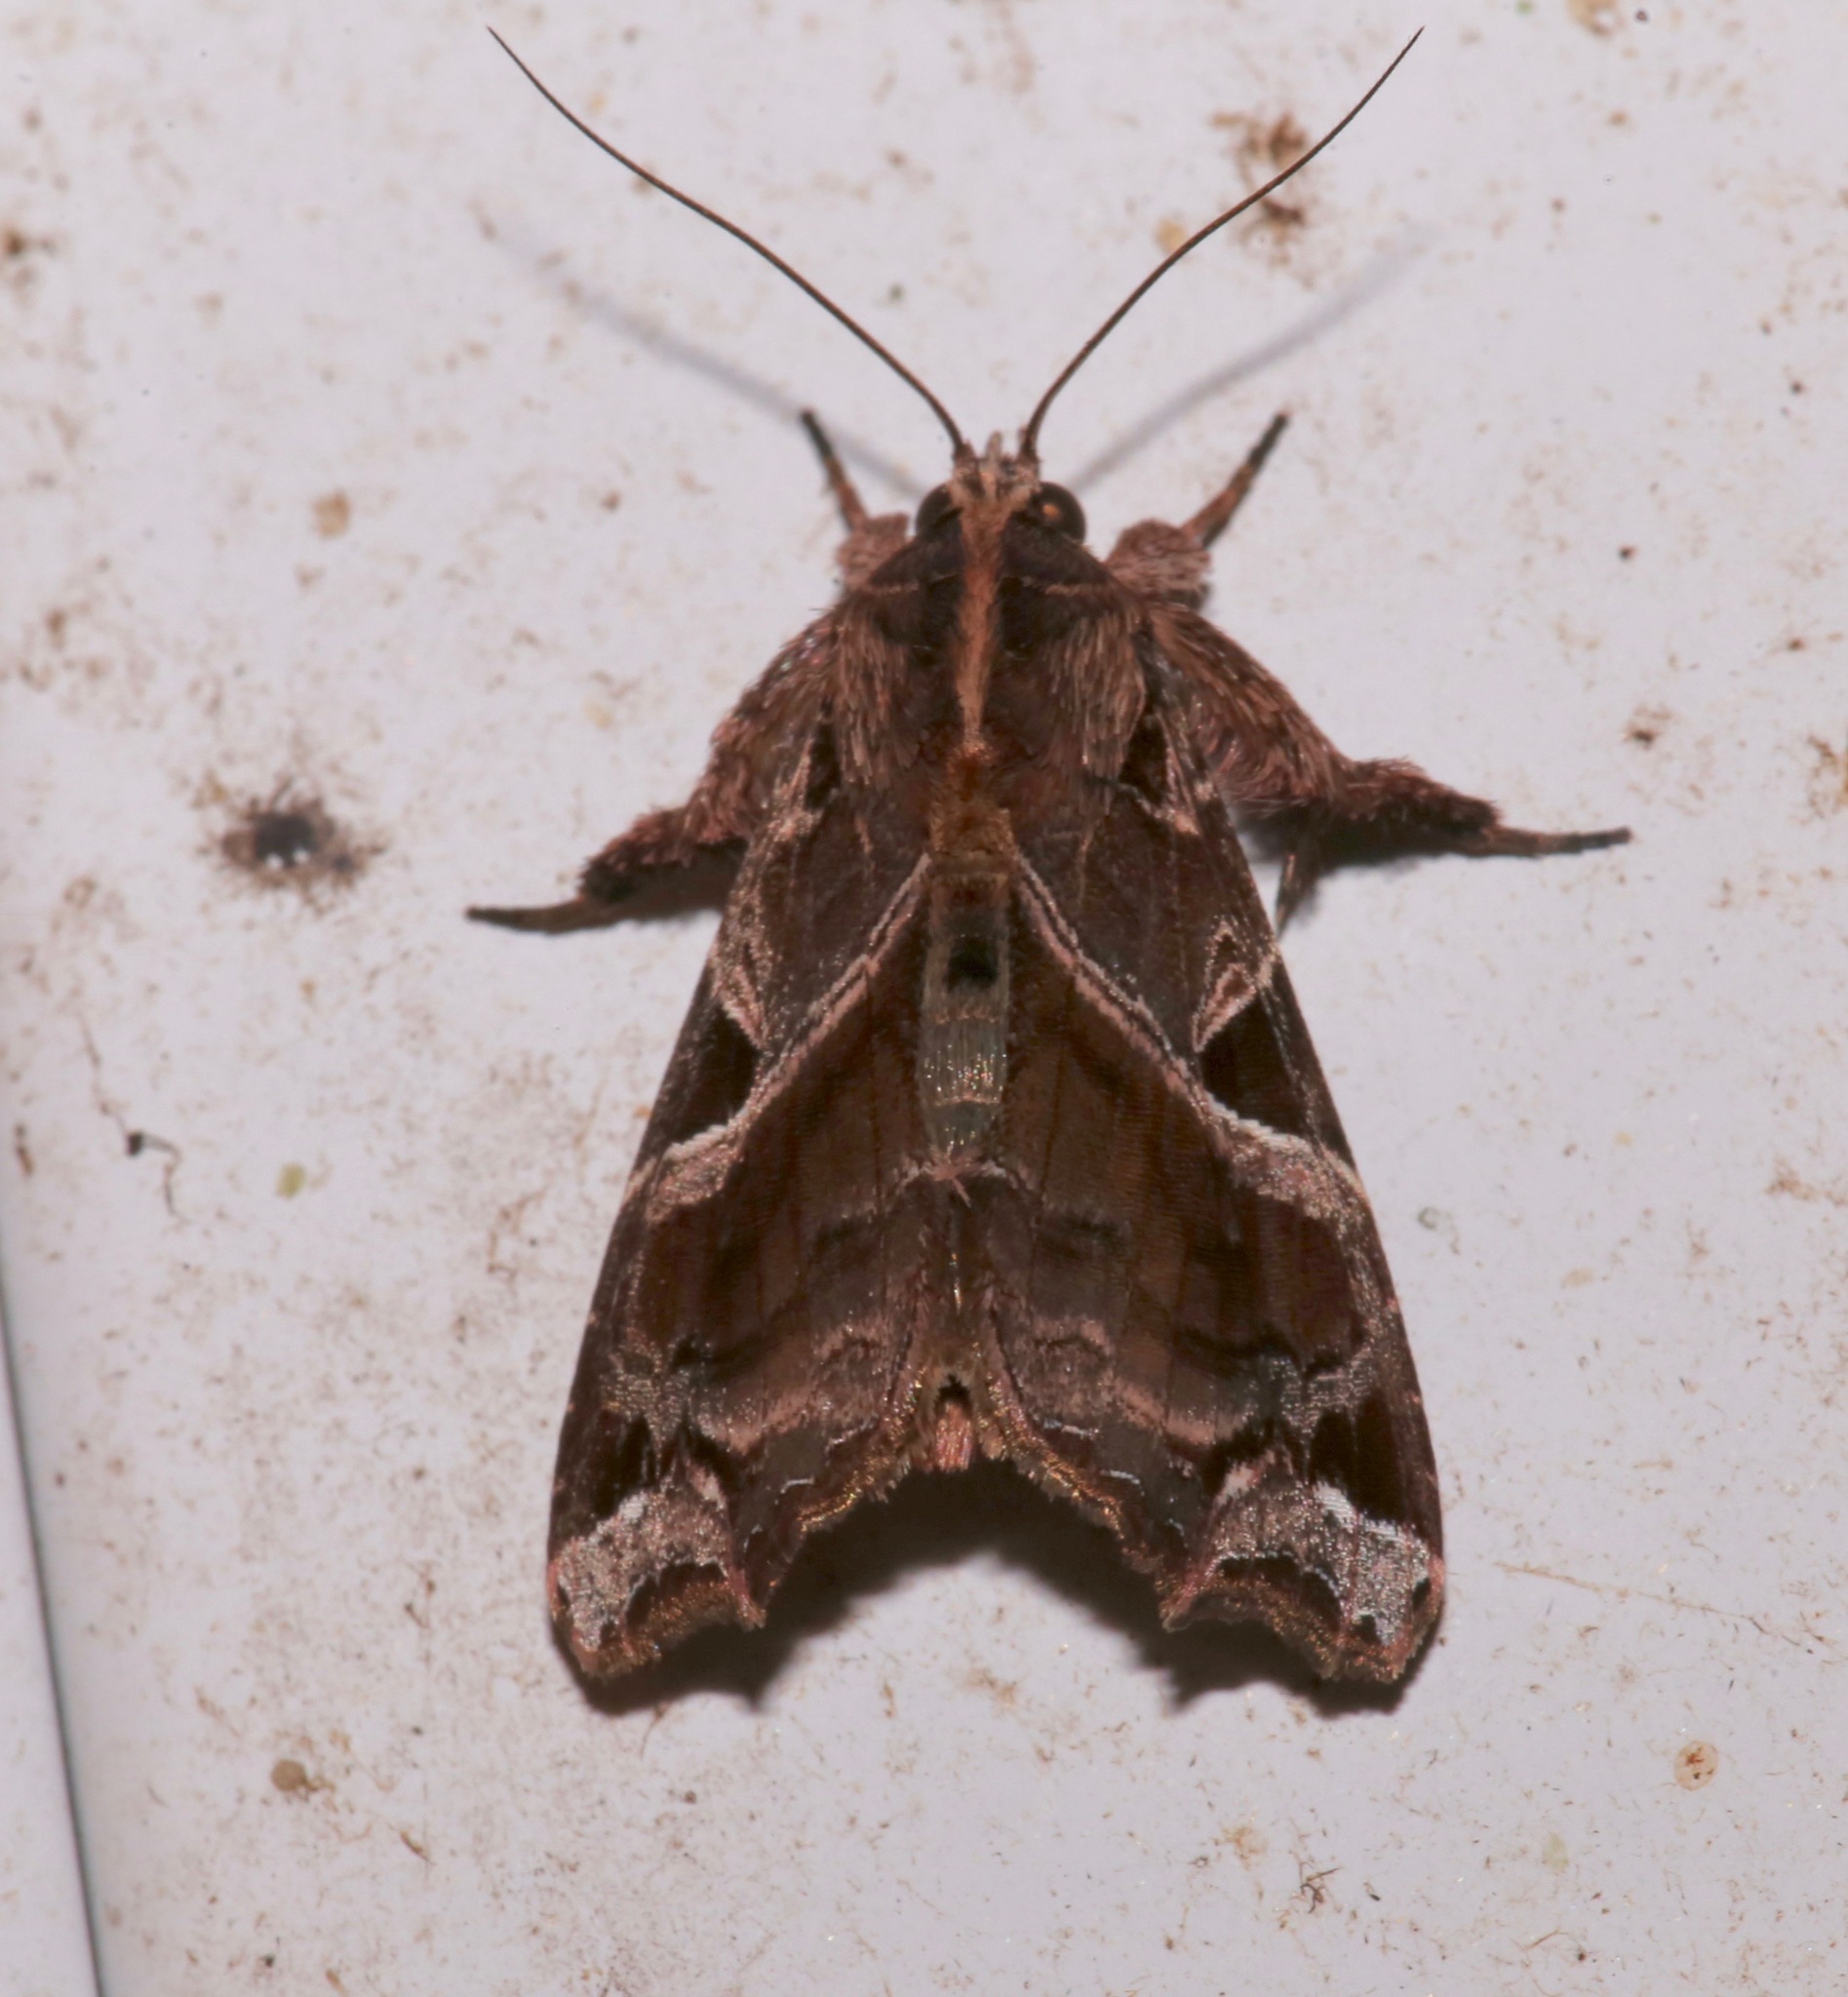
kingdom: Animalia
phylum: Arthropoda
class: Insecta
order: Lepidoptera
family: Noctuidae
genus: Callopistria
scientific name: Callopistria floridensis
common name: Florida fern moth
